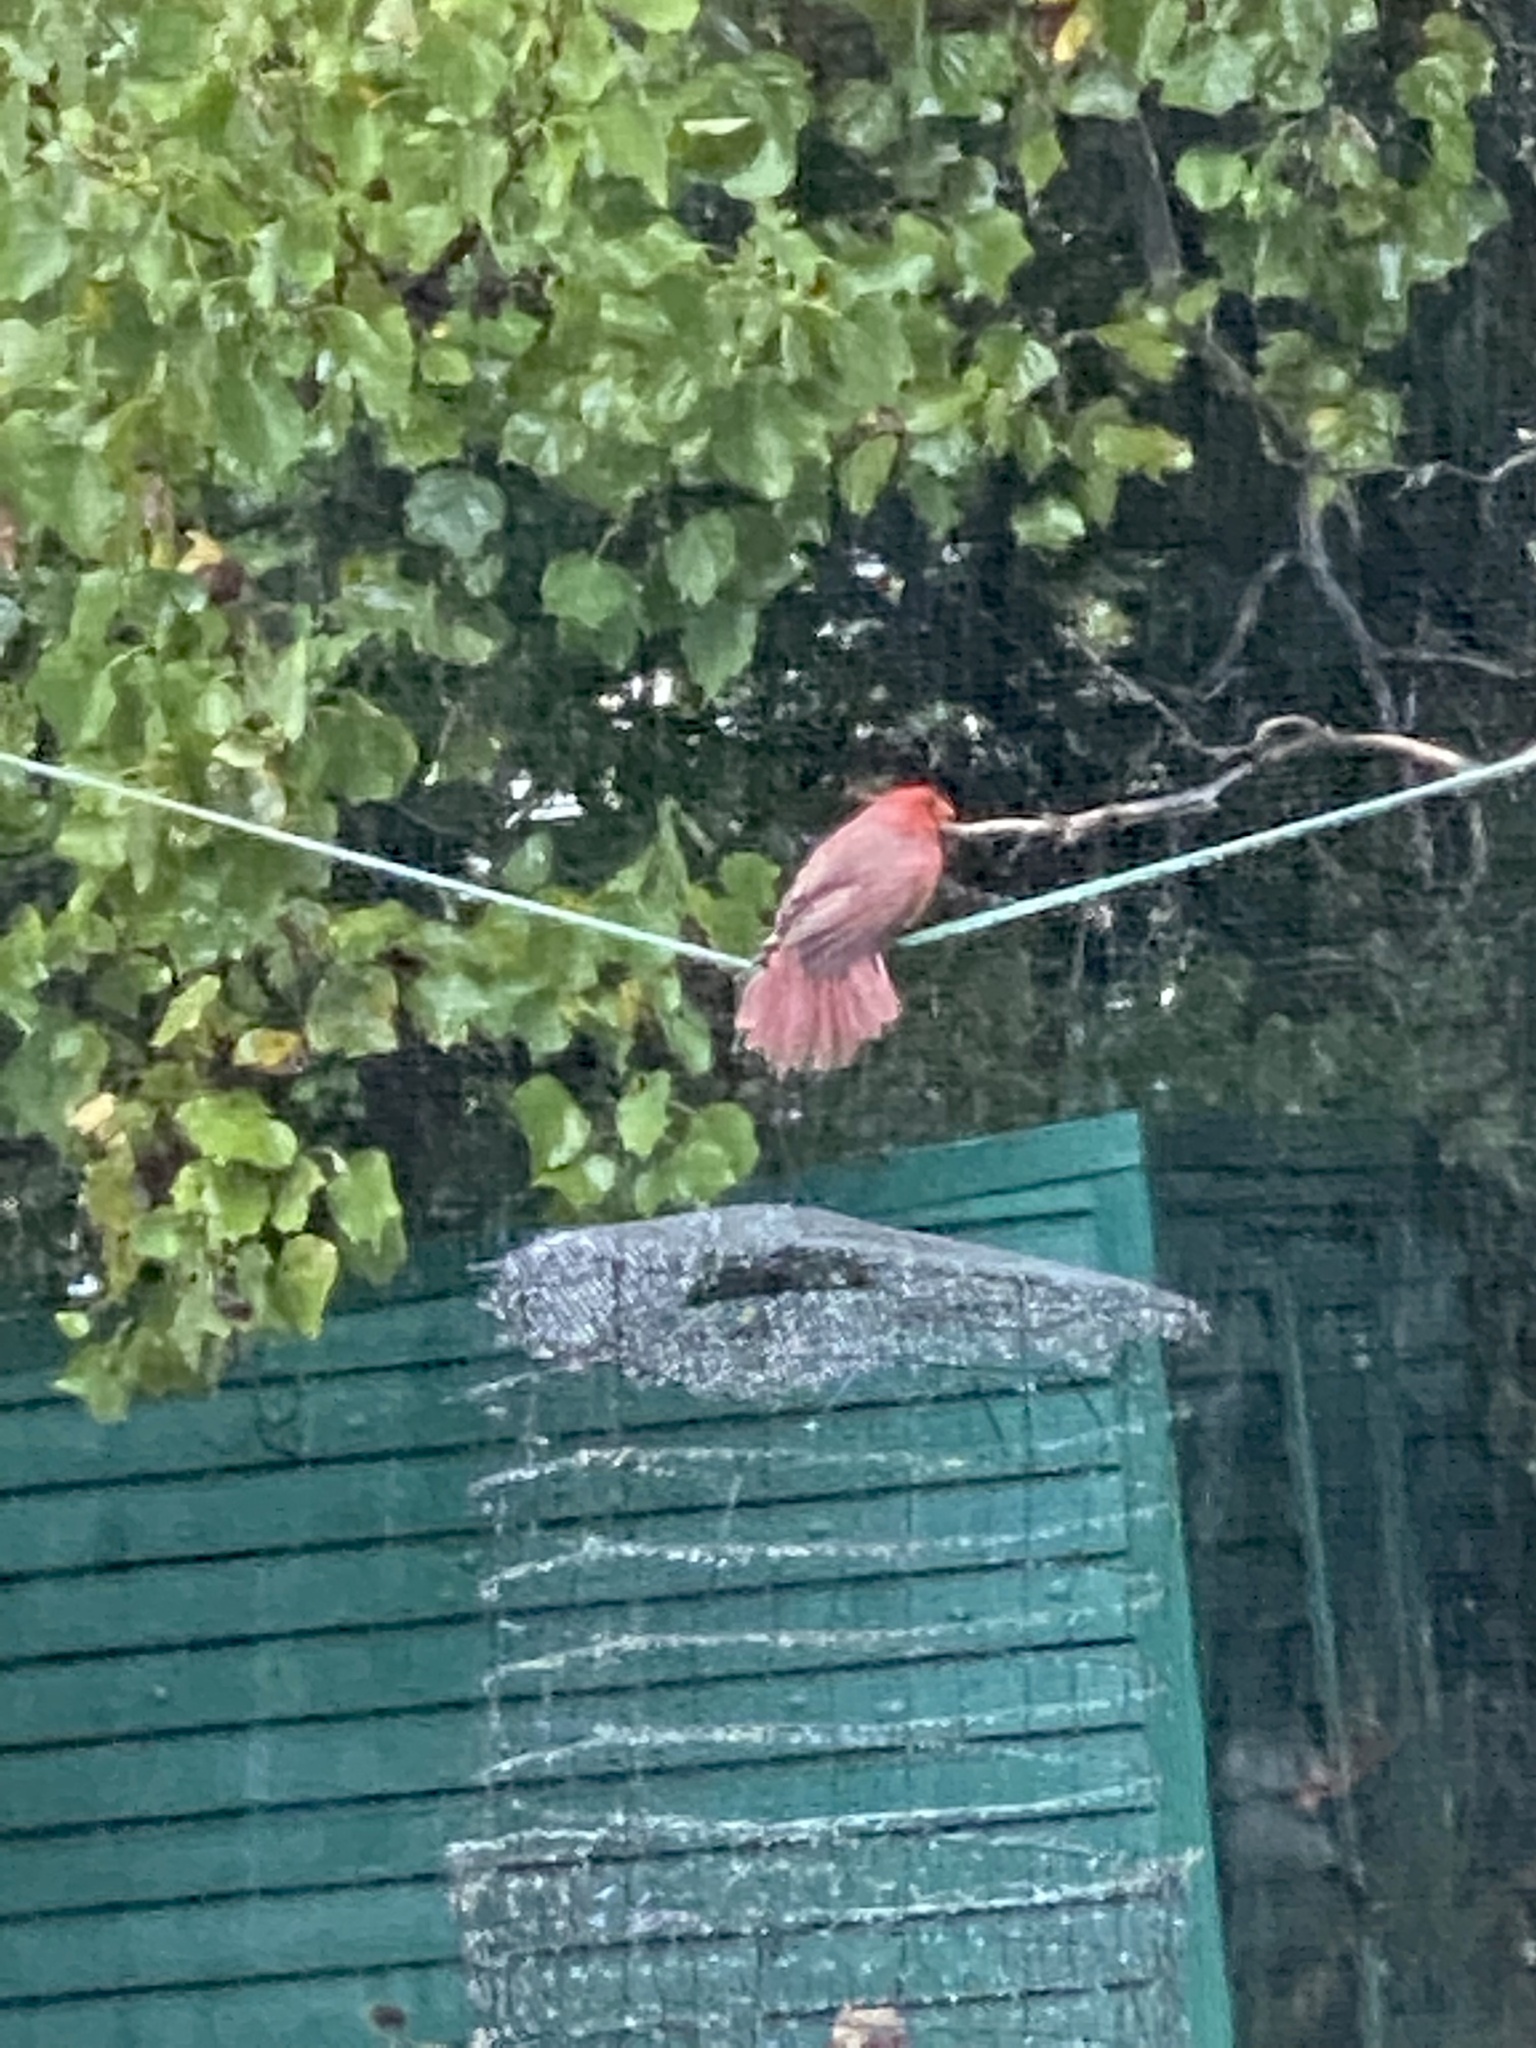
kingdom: Animalia
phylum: Chordata
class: Aves
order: Passeriformes
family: Cardinalidae
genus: Cardinalis
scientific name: Cardinalis cardinalis
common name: Northern cardinal
